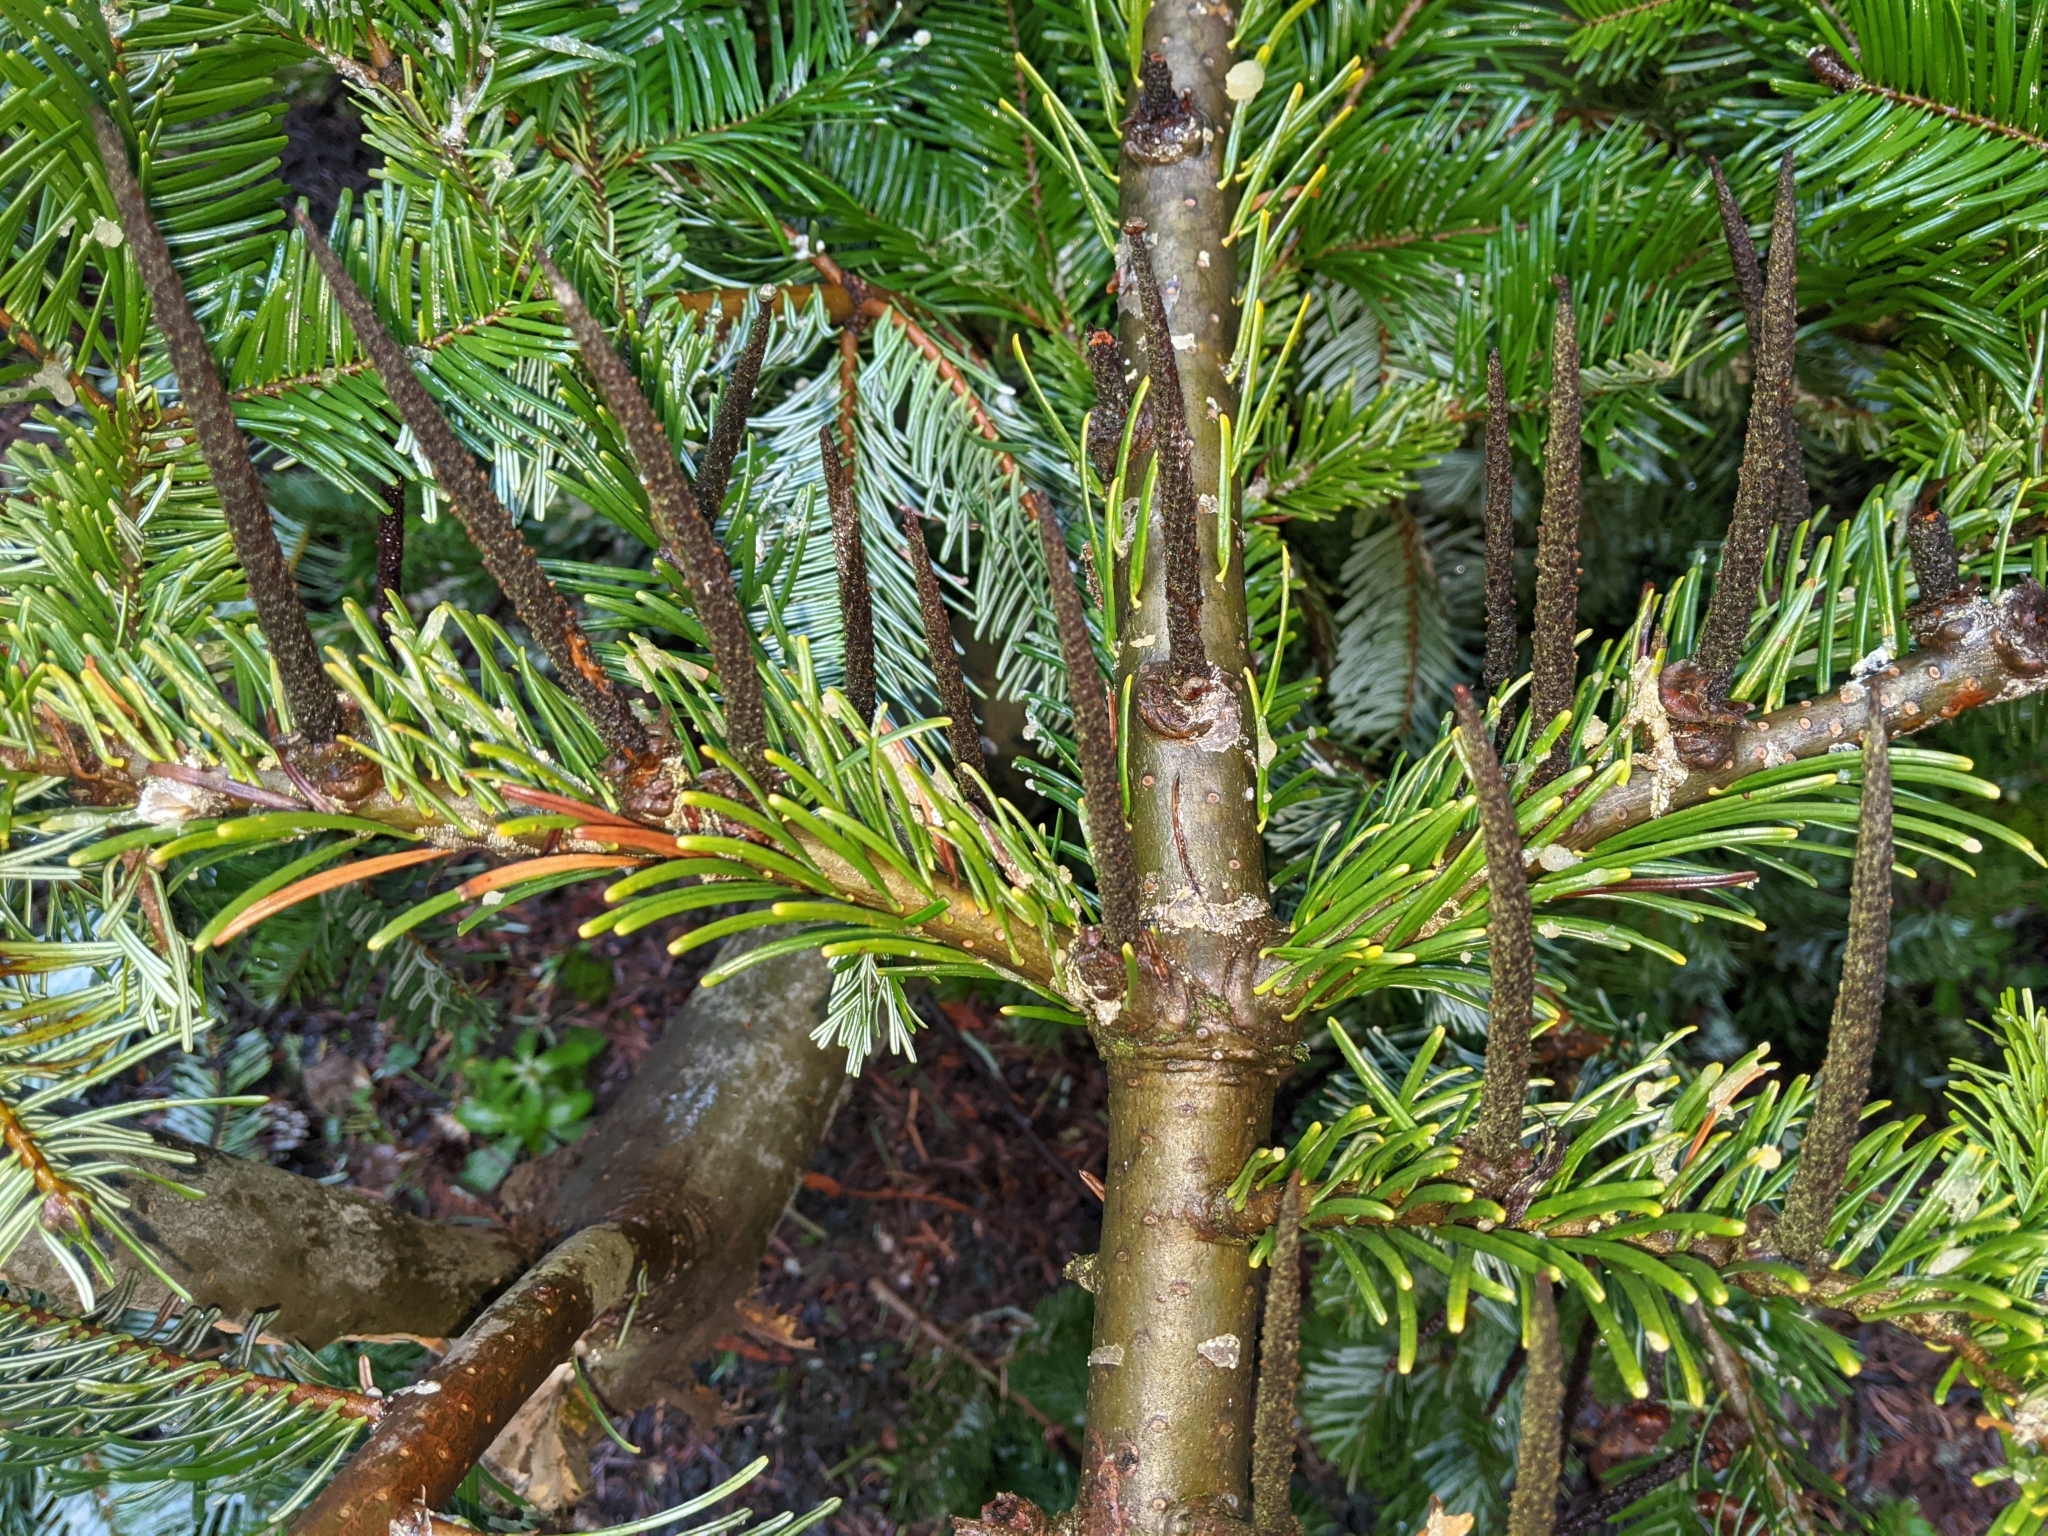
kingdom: Plantae
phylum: Tracheophyta
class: Pinopsida
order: Pinales
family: Pinaceae
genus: Abies
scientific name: Abies grandis
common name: Giant fir
